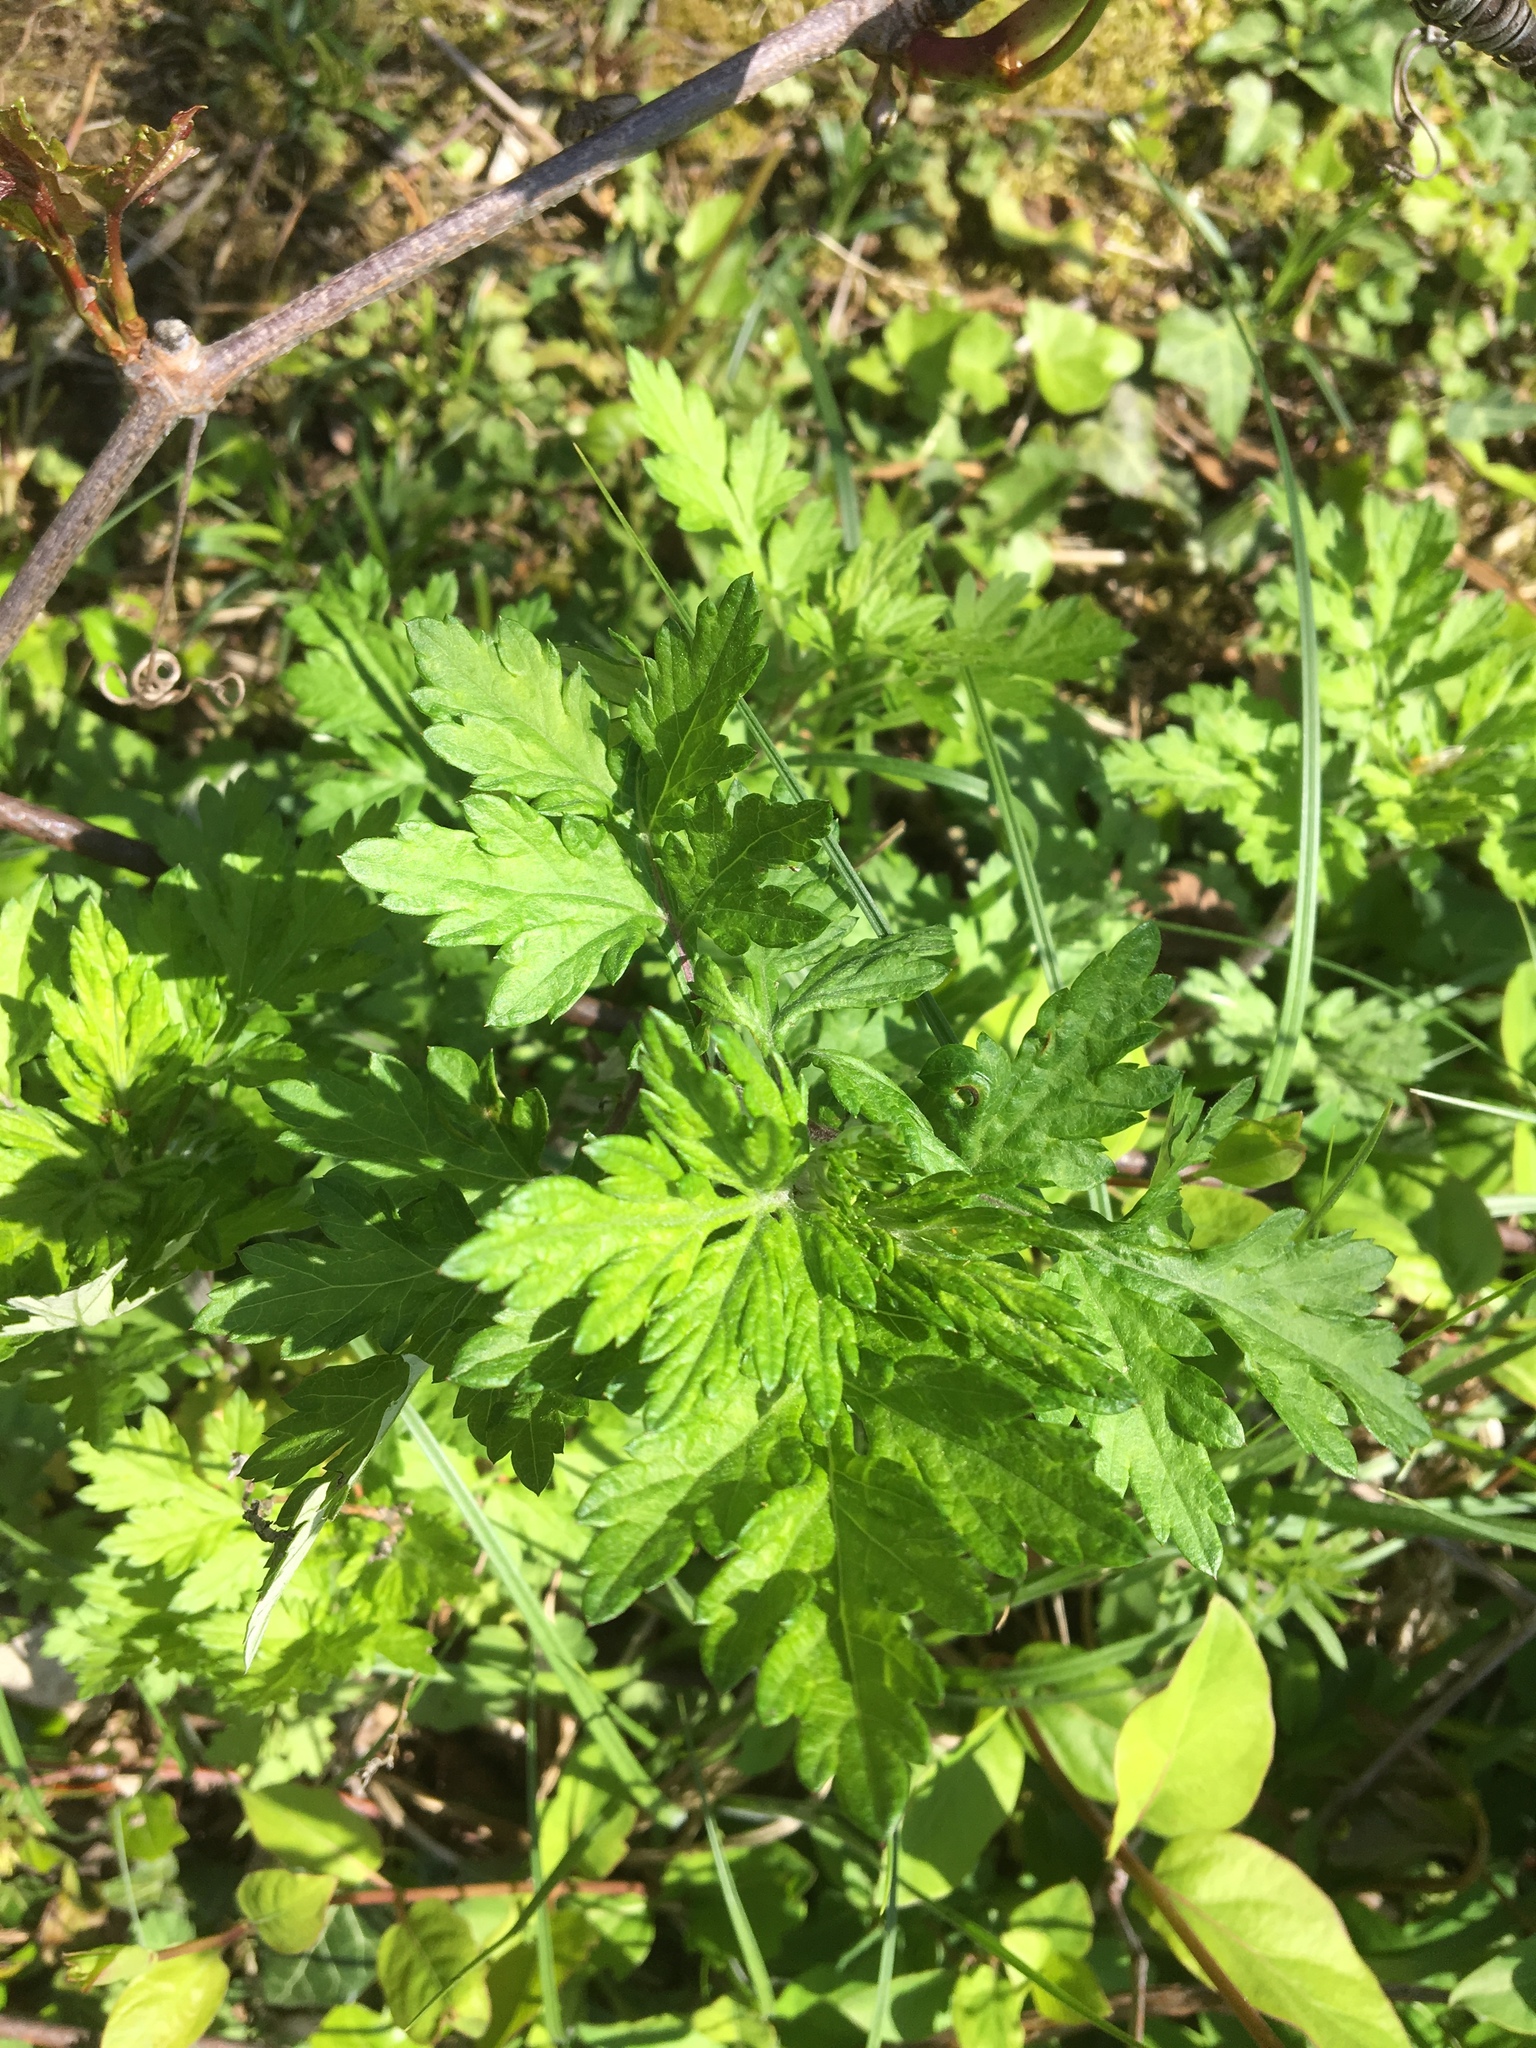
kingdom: Plantae
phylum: Tracheophyta
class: Magnoliopsida
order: Asterales
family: Asteraceae
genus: Artemisia
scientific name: Artemisia vulgaris
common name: Mugwort
